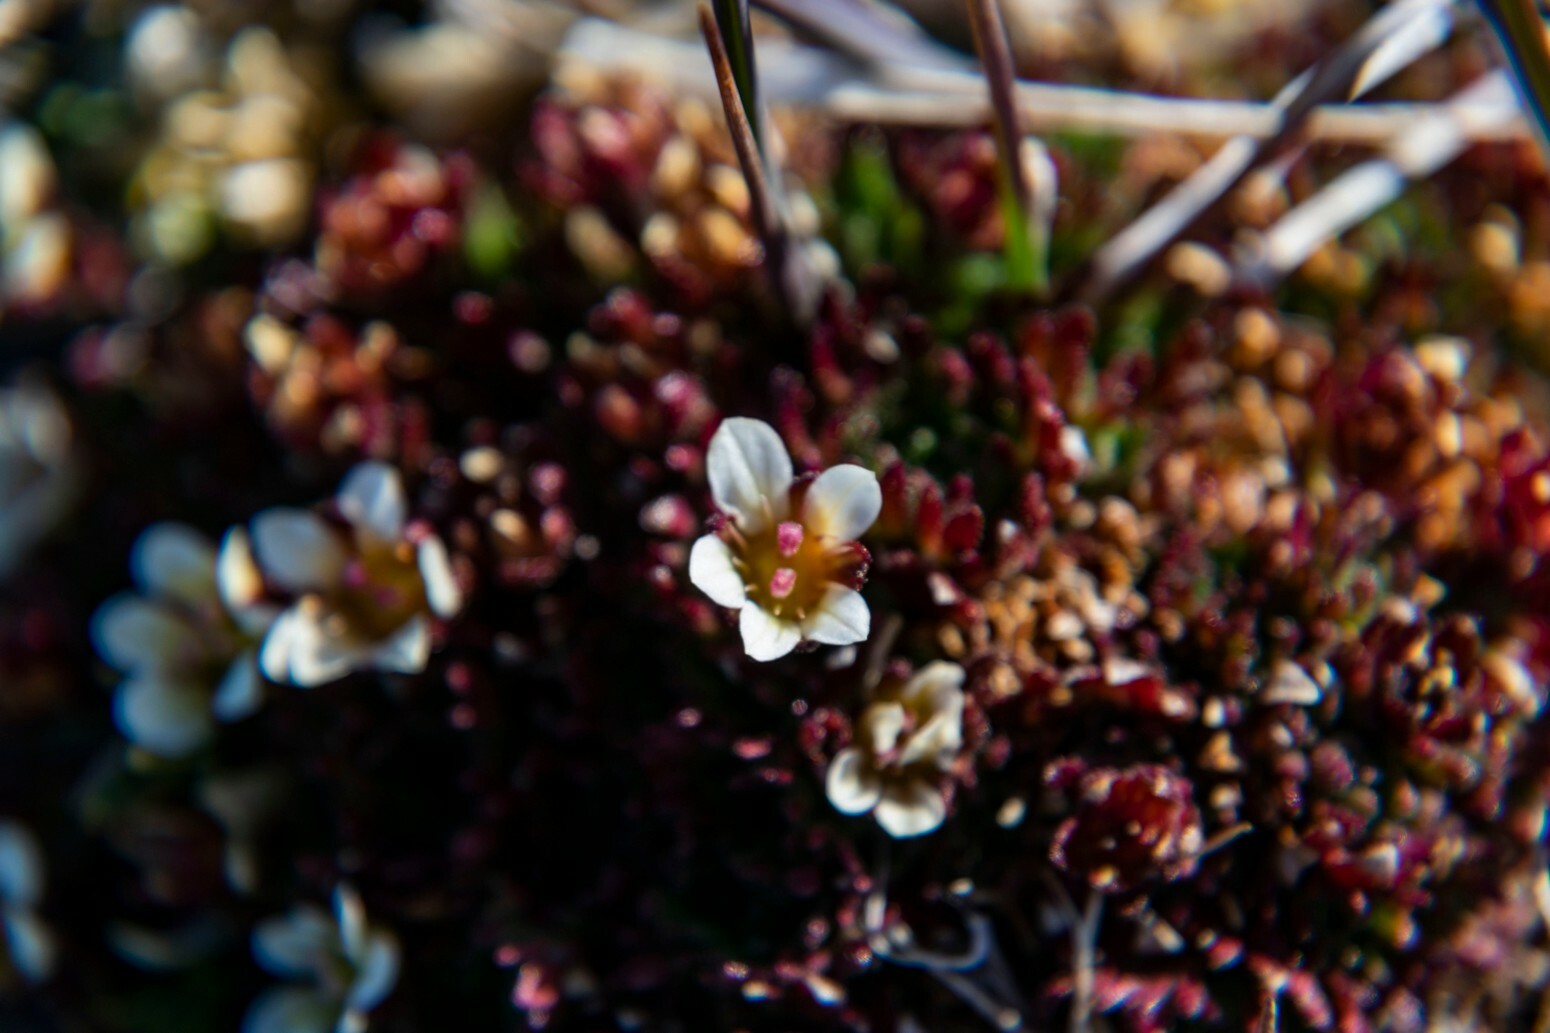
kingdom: Plantae
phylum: Tracheophyta
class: Magnoliopsida
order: Saxifragales
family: Saxifragaceae
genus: Saxifraga
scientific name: Saxifraga cespitosa
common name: Tufted saxifrage
